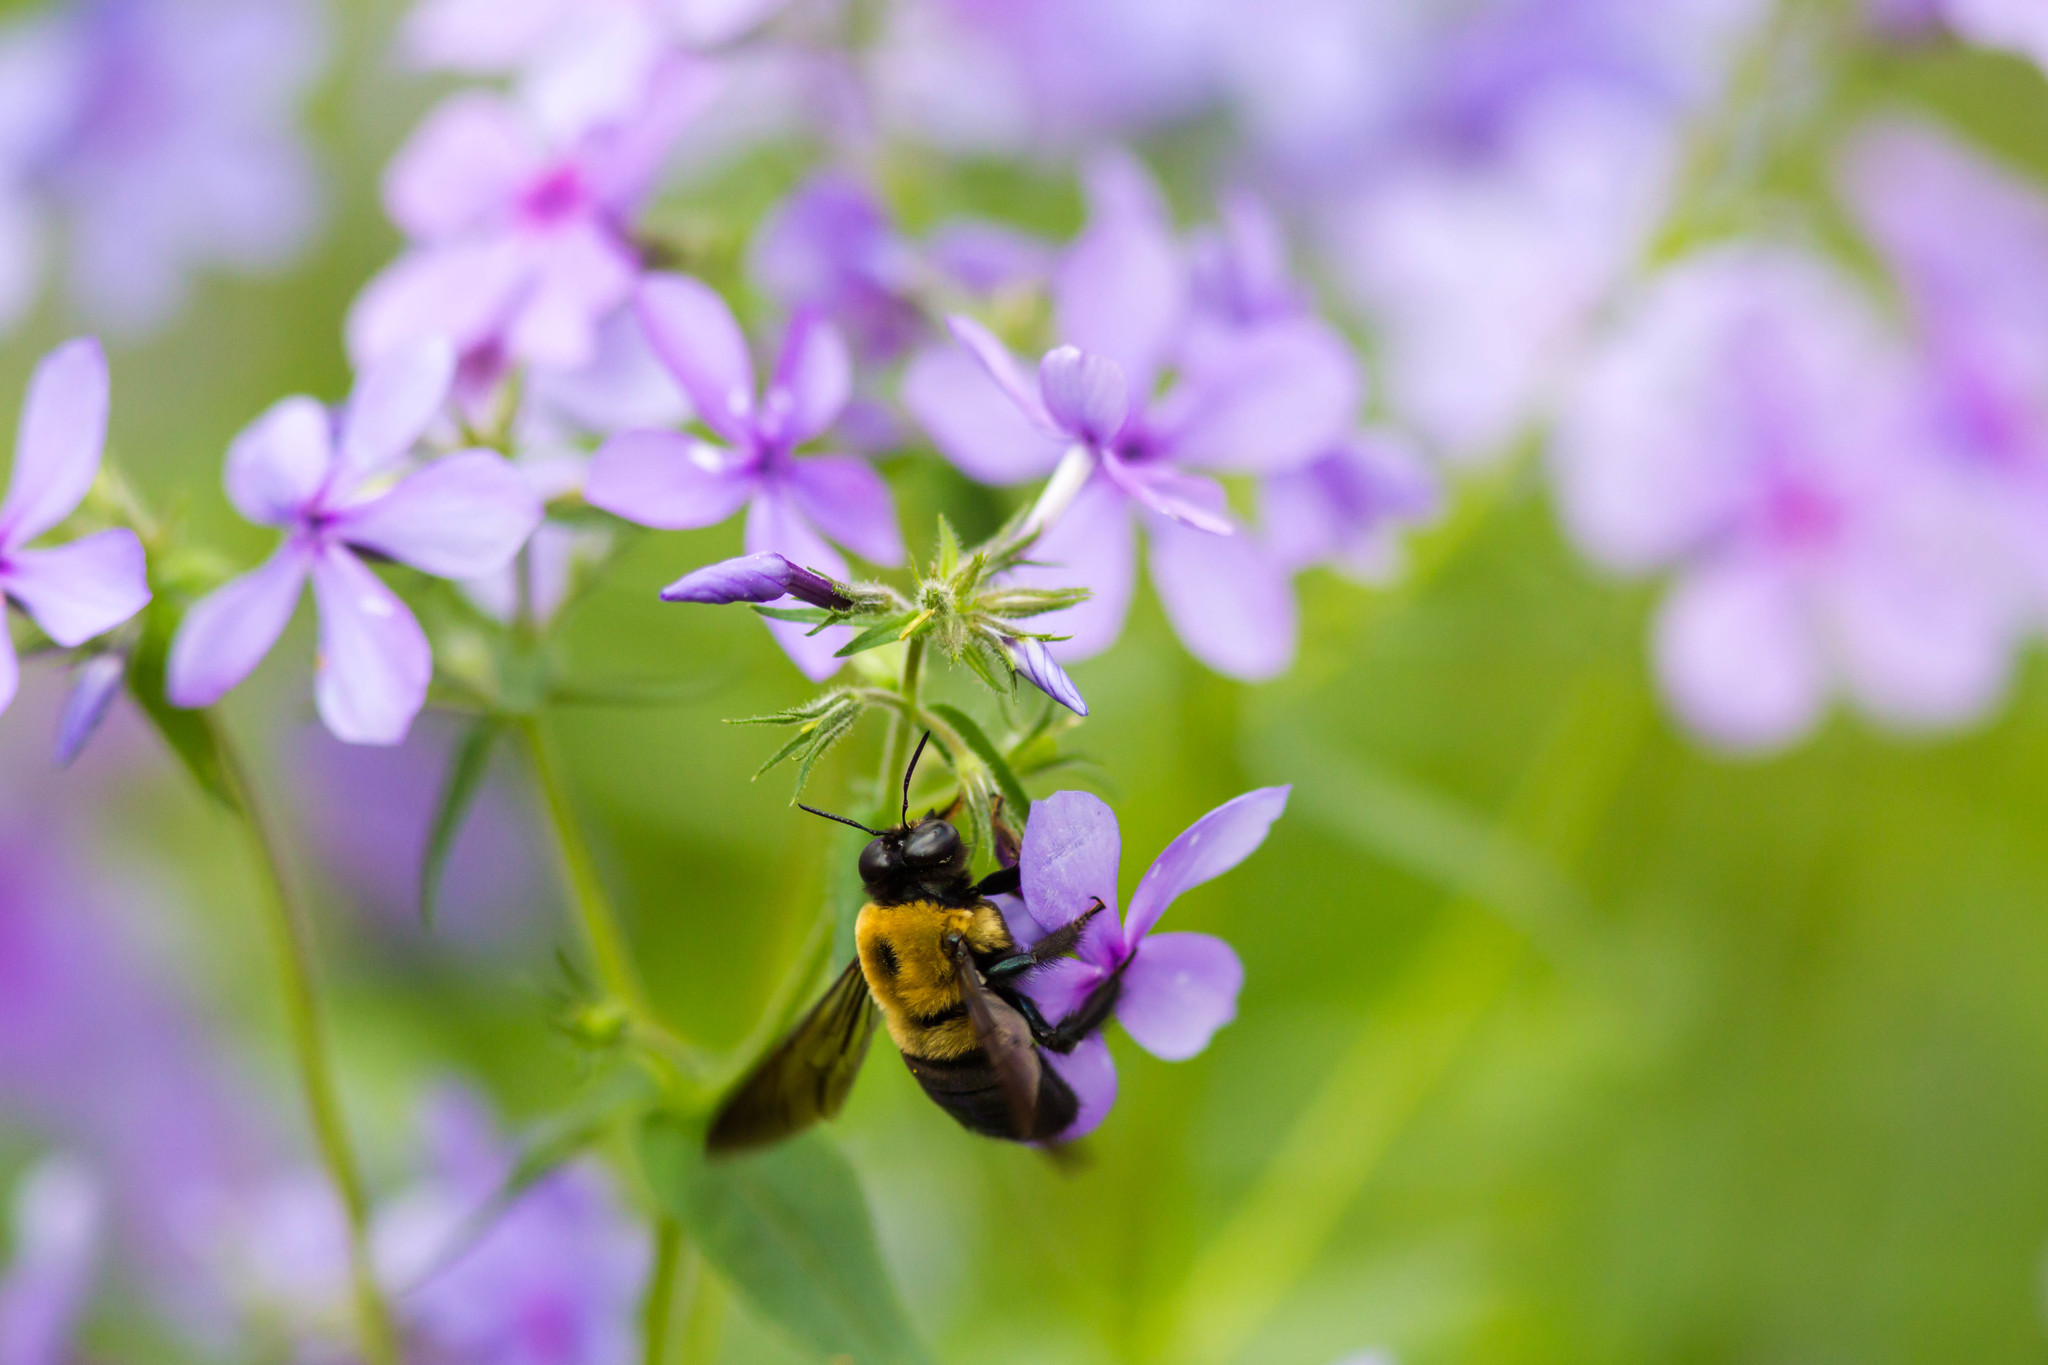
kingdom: Animalia
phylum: Arthropoda
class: Insecta
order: Hymenoptera
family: Apidae
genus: Xylocopa
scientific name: Xylocopa virginica
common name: Carpenter bee
